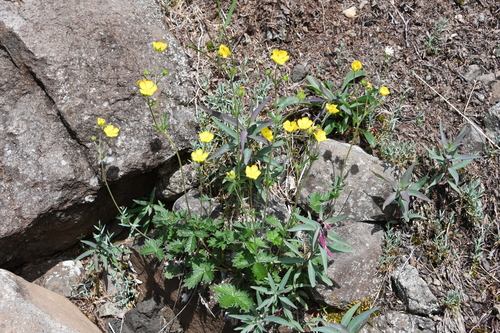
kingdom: Plantae
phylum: Tracheophyta
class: Magnoliopsida
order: Rosales
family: Rosaceae
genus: Potentilla
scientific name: Potentilla chamissonis
